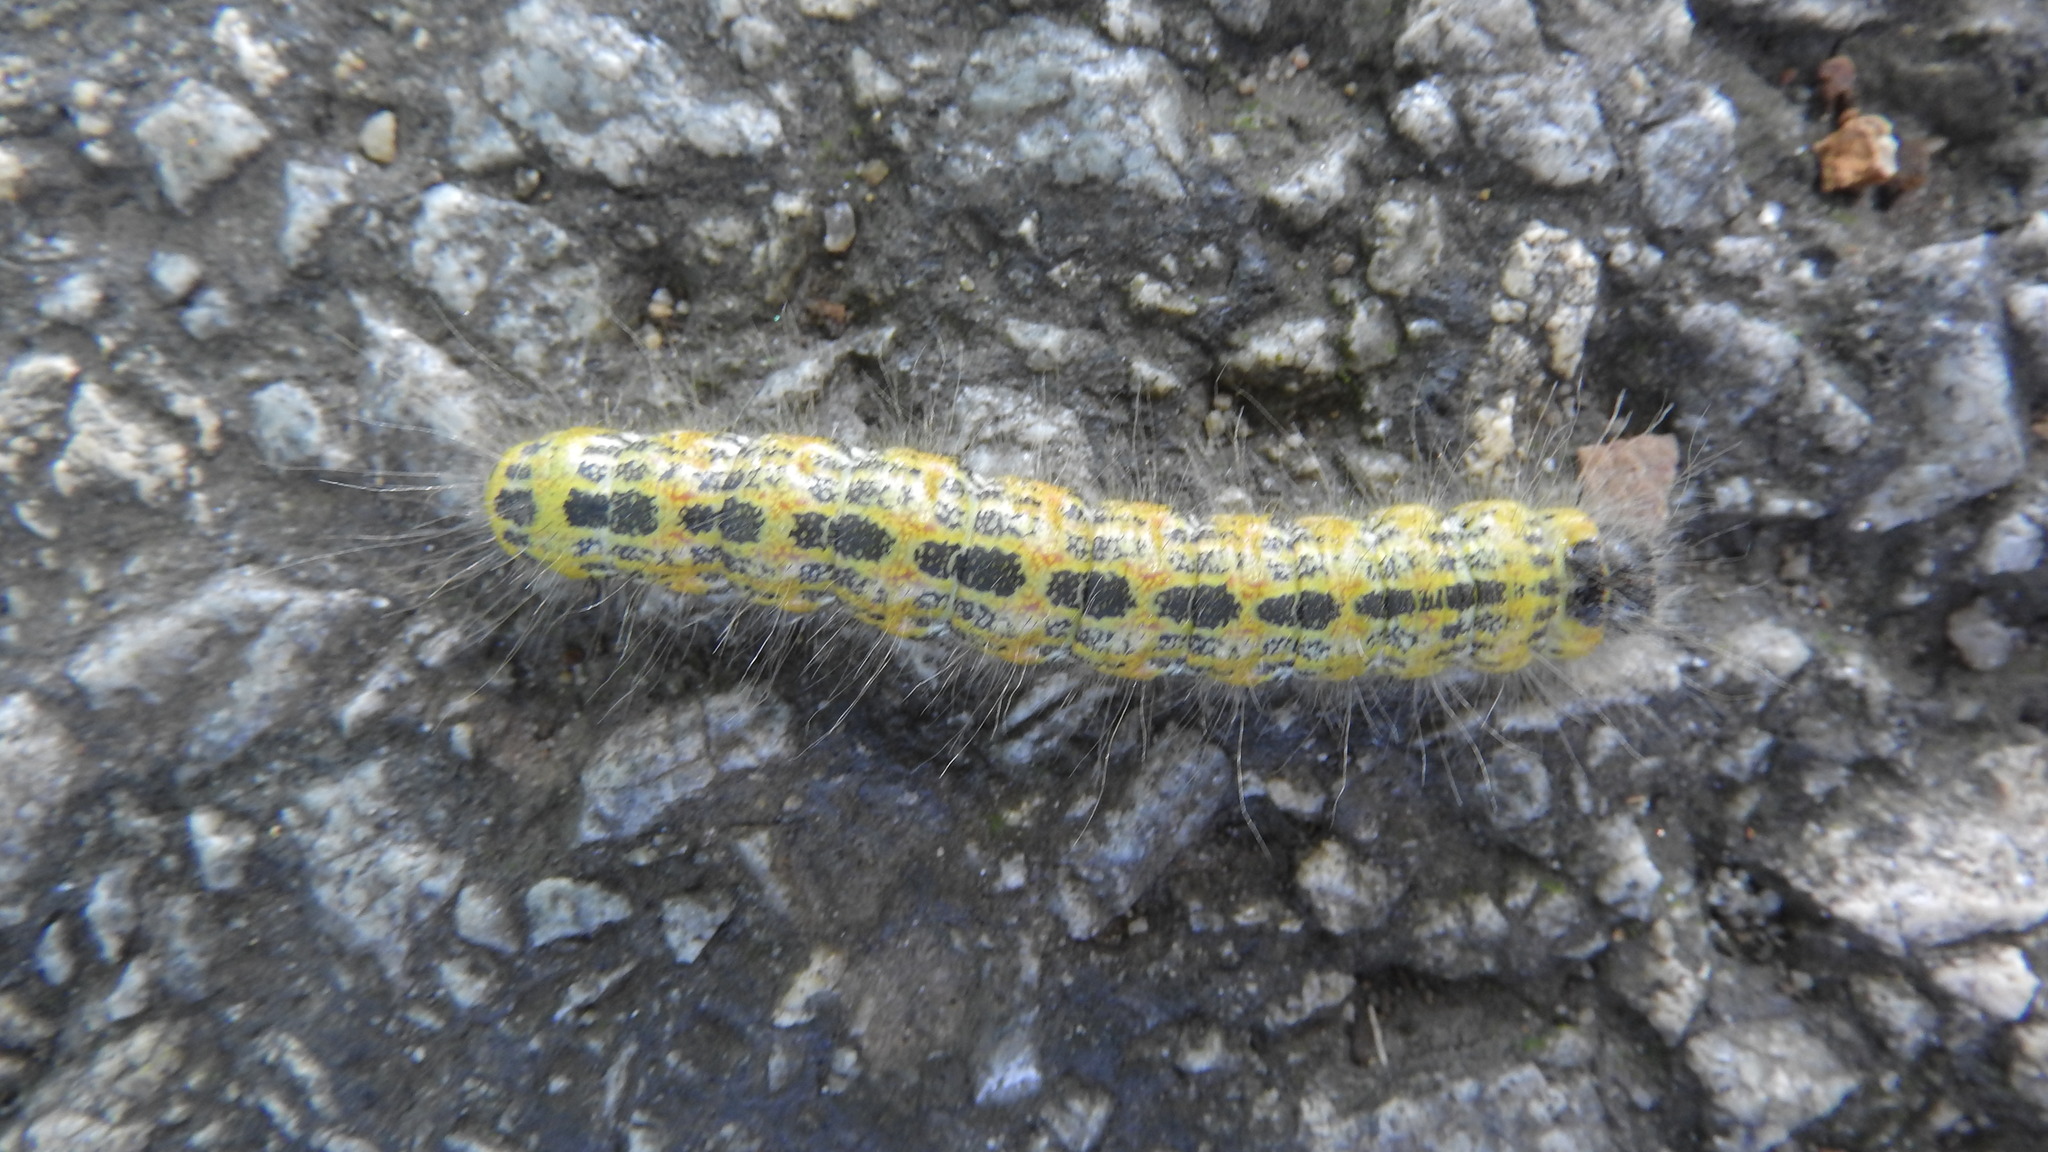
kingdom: Animalia
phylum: Arthropoda
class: Insecta
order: Lepidoptera
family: Notodontidae
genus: Phalera
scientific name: Phalera bucephala
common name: Buff-tip
